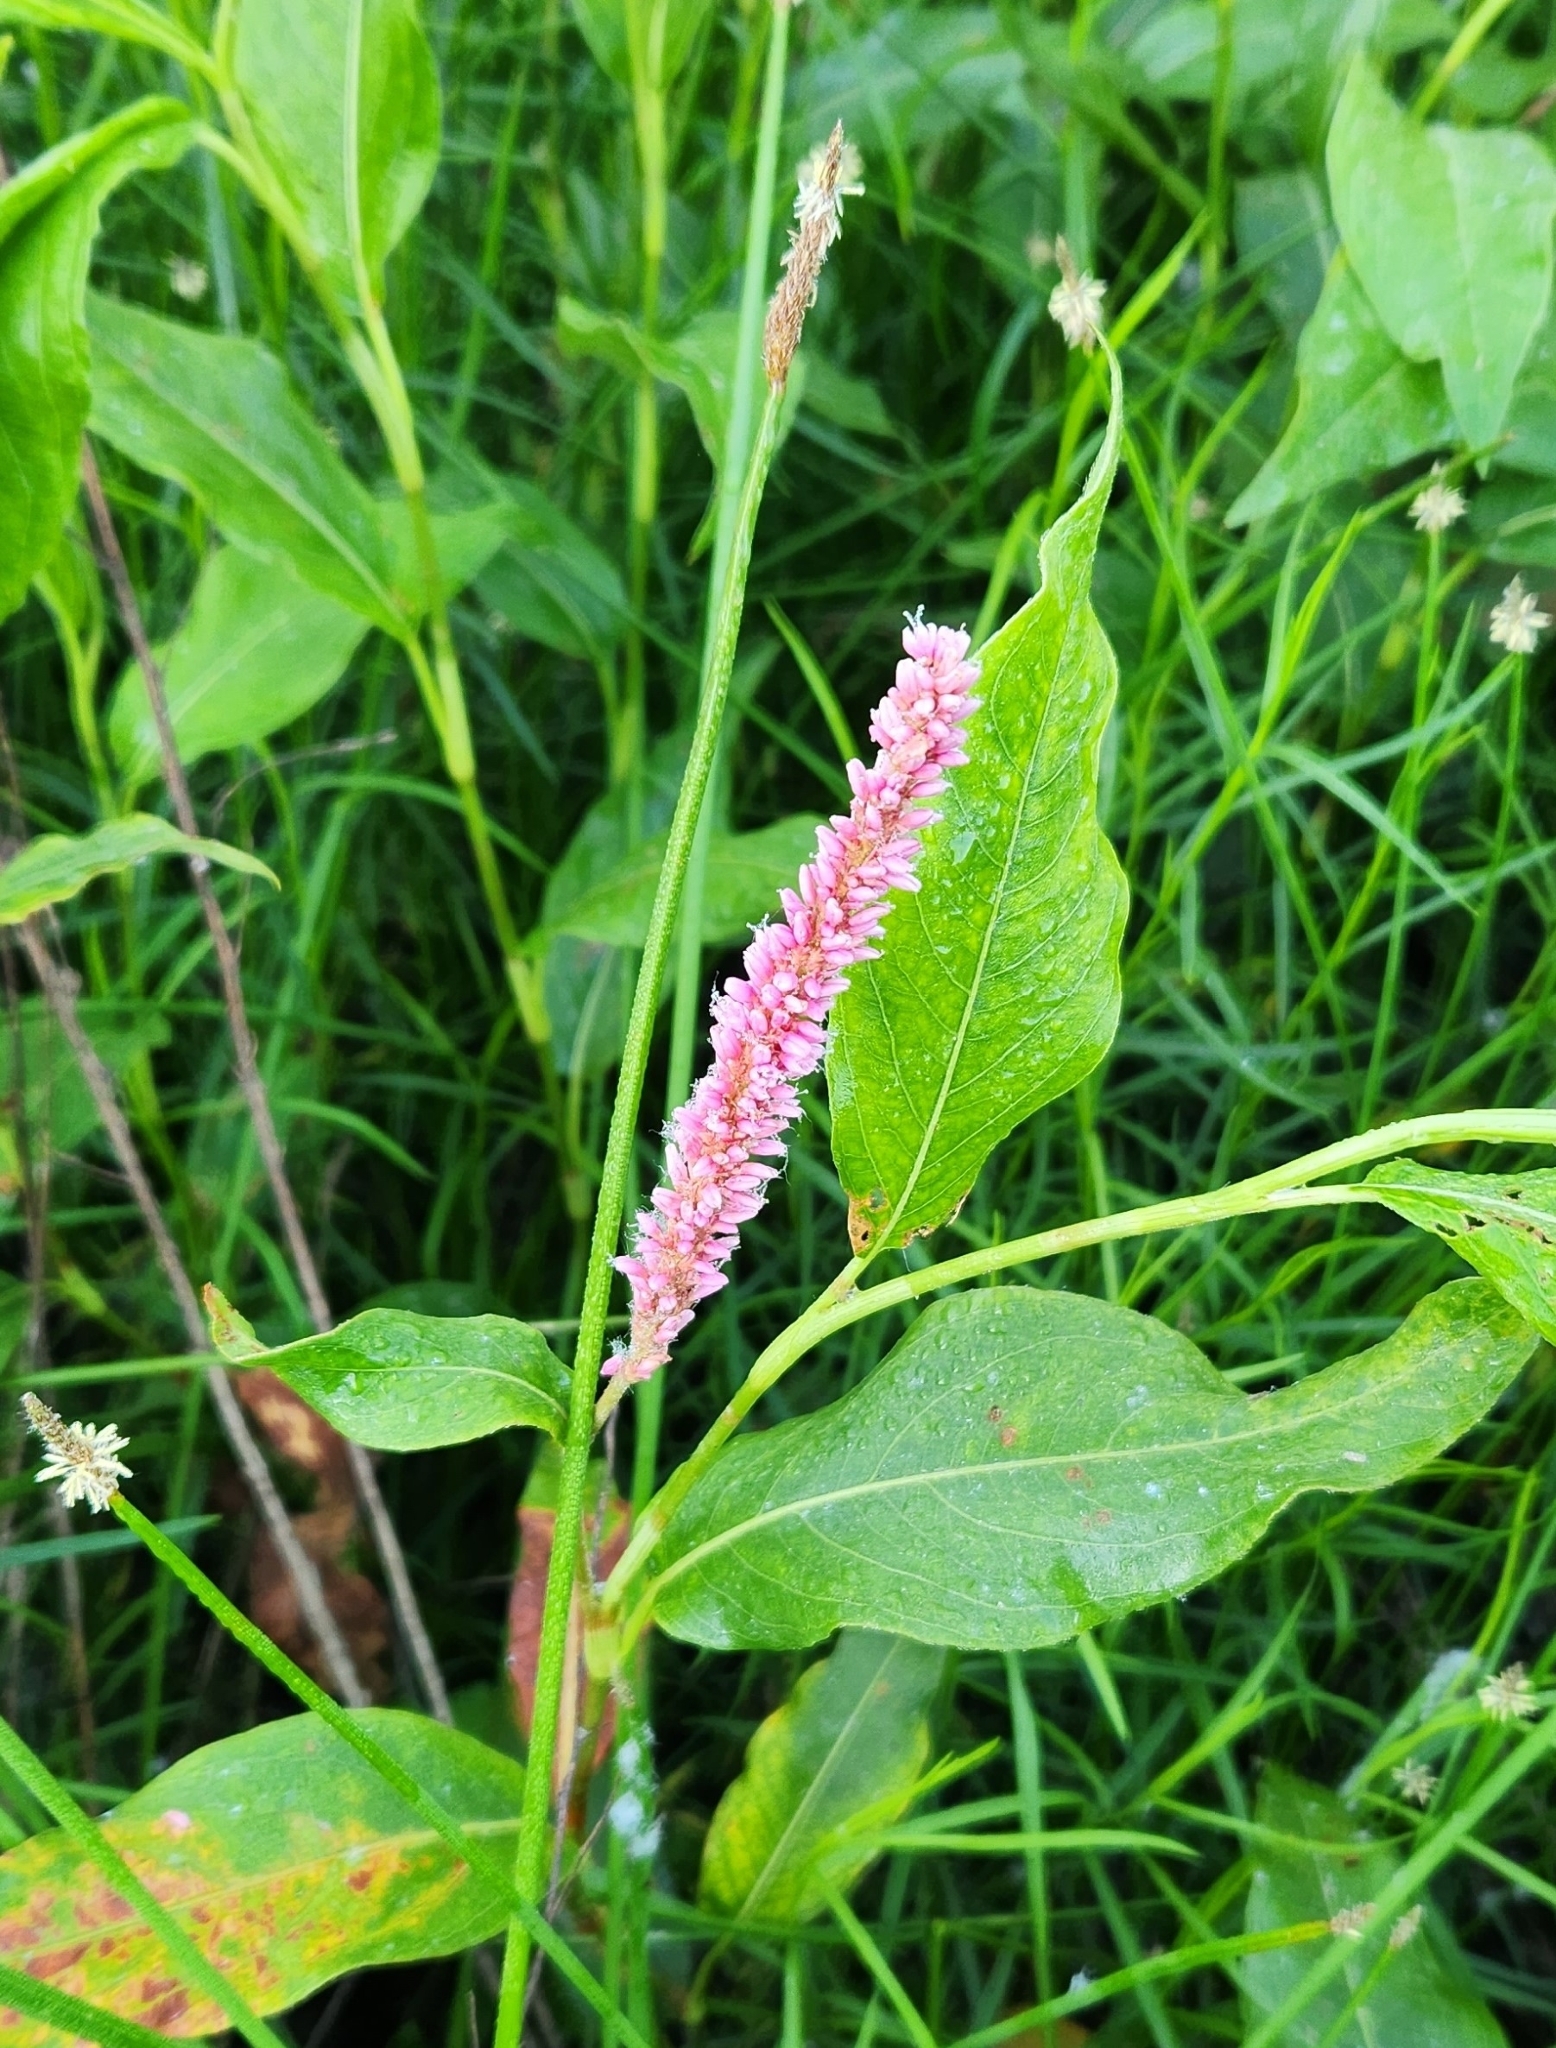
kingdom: Plantae
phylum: Tracheophyta
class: Magnoliopsida
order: Caryophyllales
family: Polygonaceae
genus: Persicaria
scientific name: Persicaria amphibia
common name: Amphibious bistort
